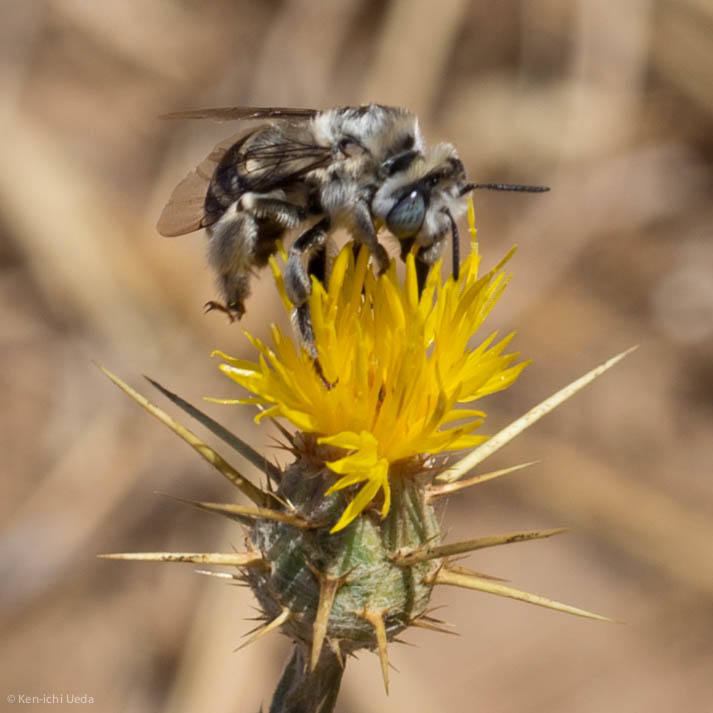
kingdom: Animalia
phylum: Arthropoda
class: Insecta
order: Hymenoptera
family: Apidae
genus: Anthophora
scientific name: Anthophora urbana
